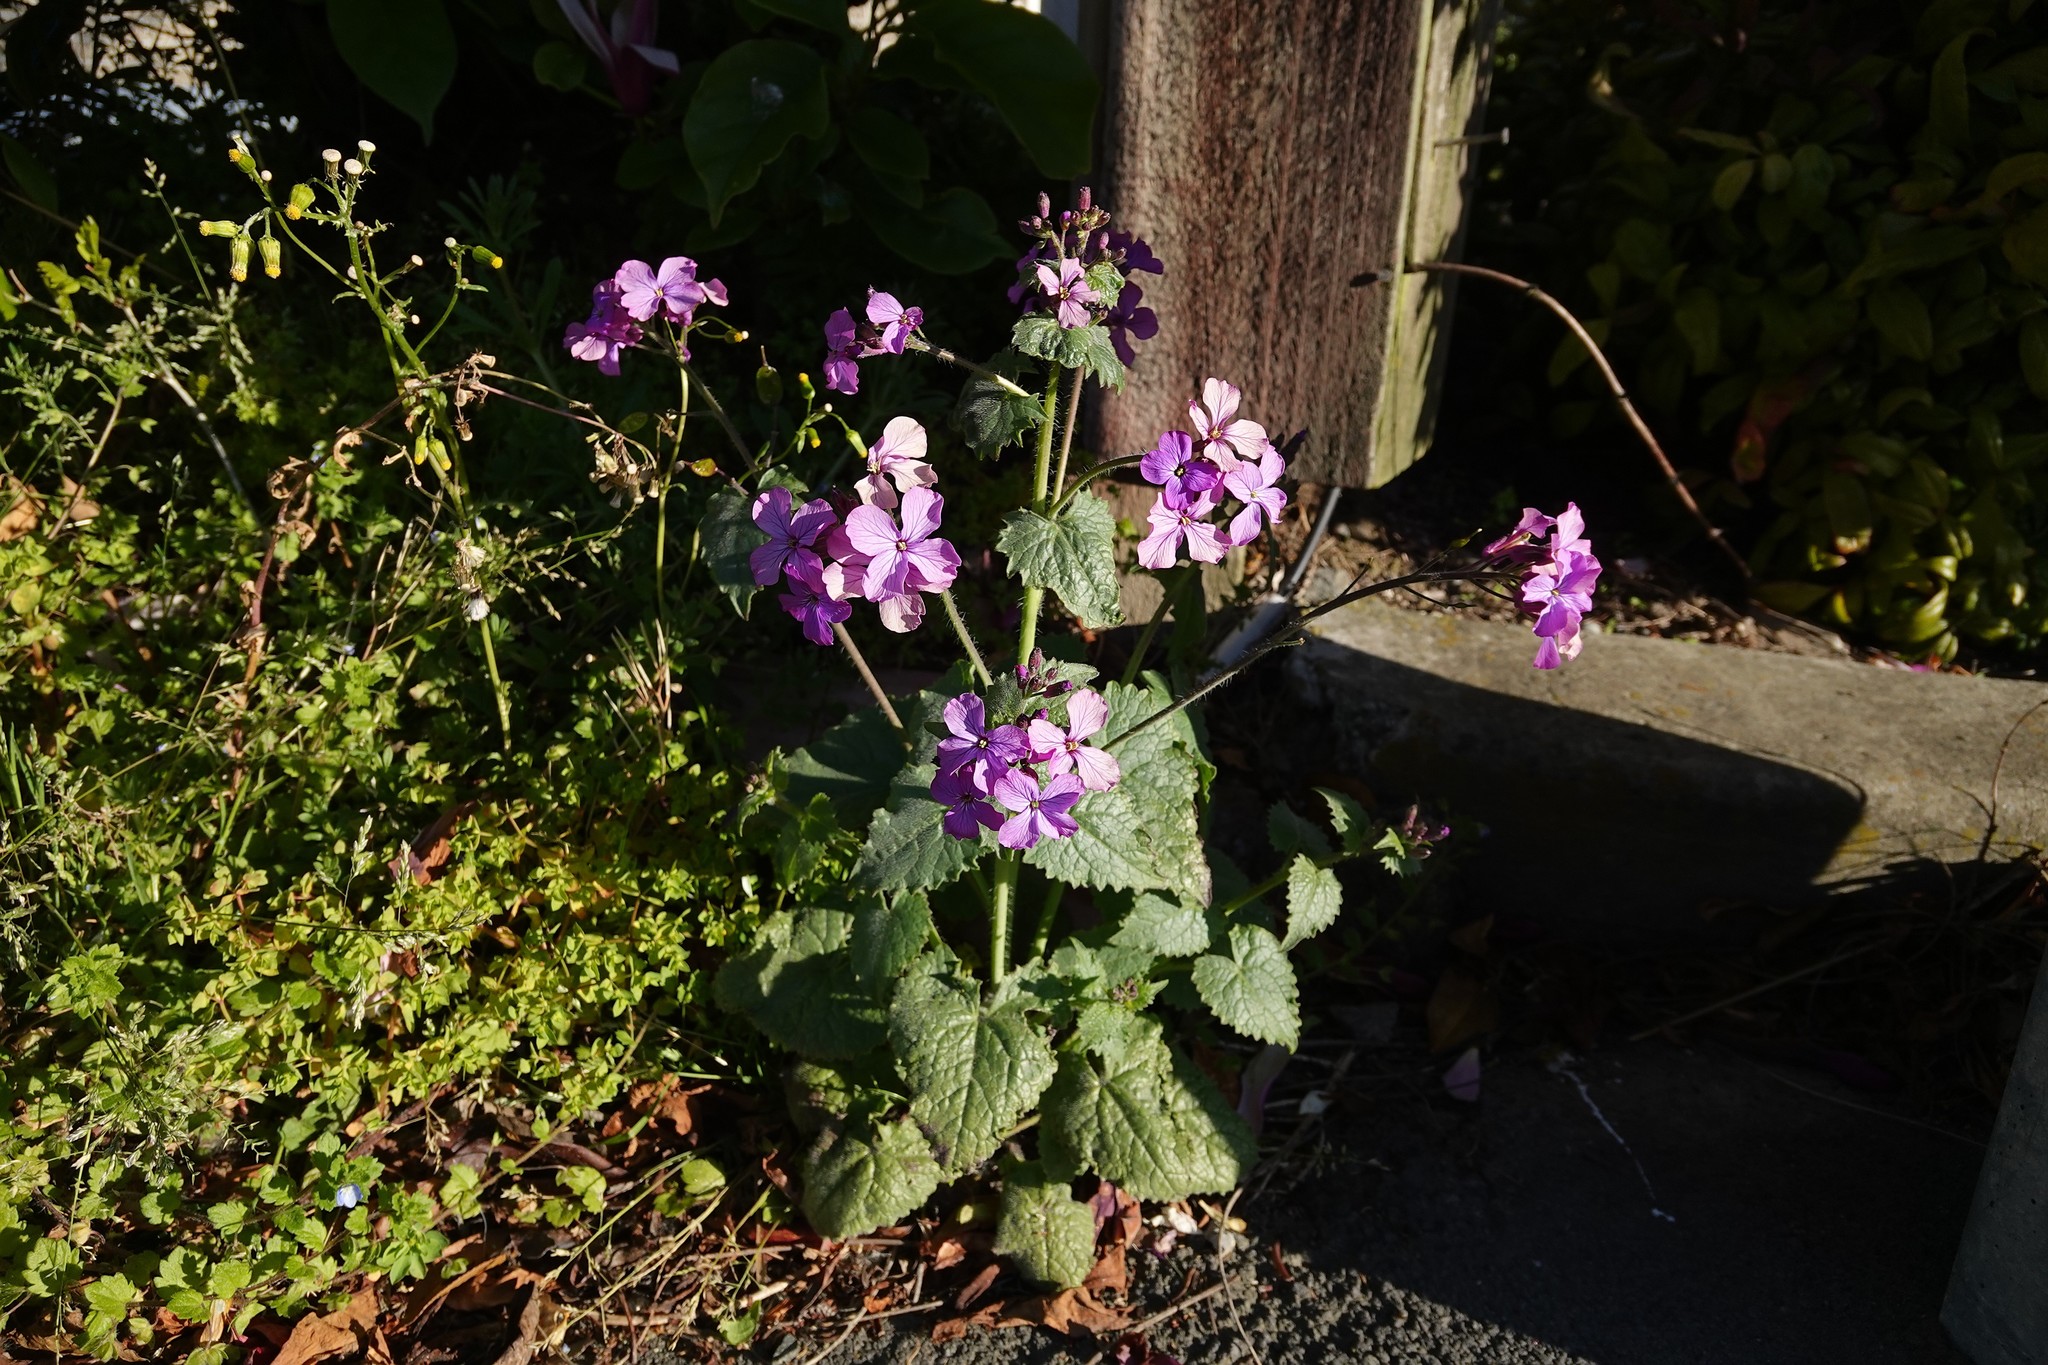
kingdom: Plantae
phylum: Tracheophyta
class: Magnoliopsida
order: Brassicales
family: Brassicaceae
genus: Lunaria
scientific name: Lunaria annua
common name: Honesty
